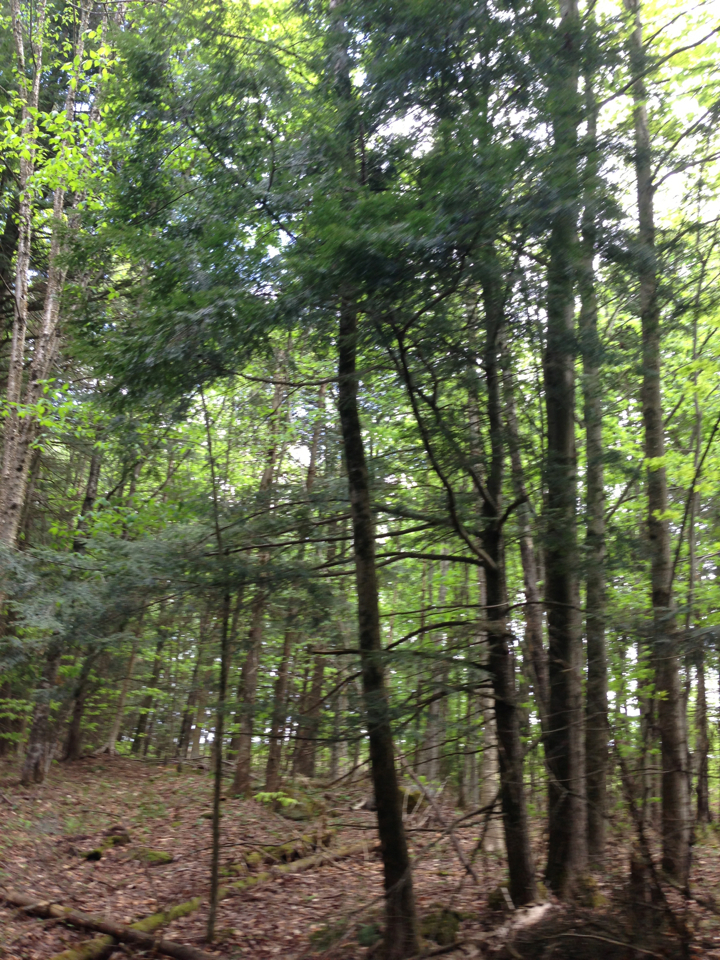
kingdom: Plantae
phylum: Tracheophyta
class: Pinopsida
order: Pinales
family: Pinaceae
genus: Tsuga
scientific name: Tsuga canadensis
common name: Eastern hemlock
